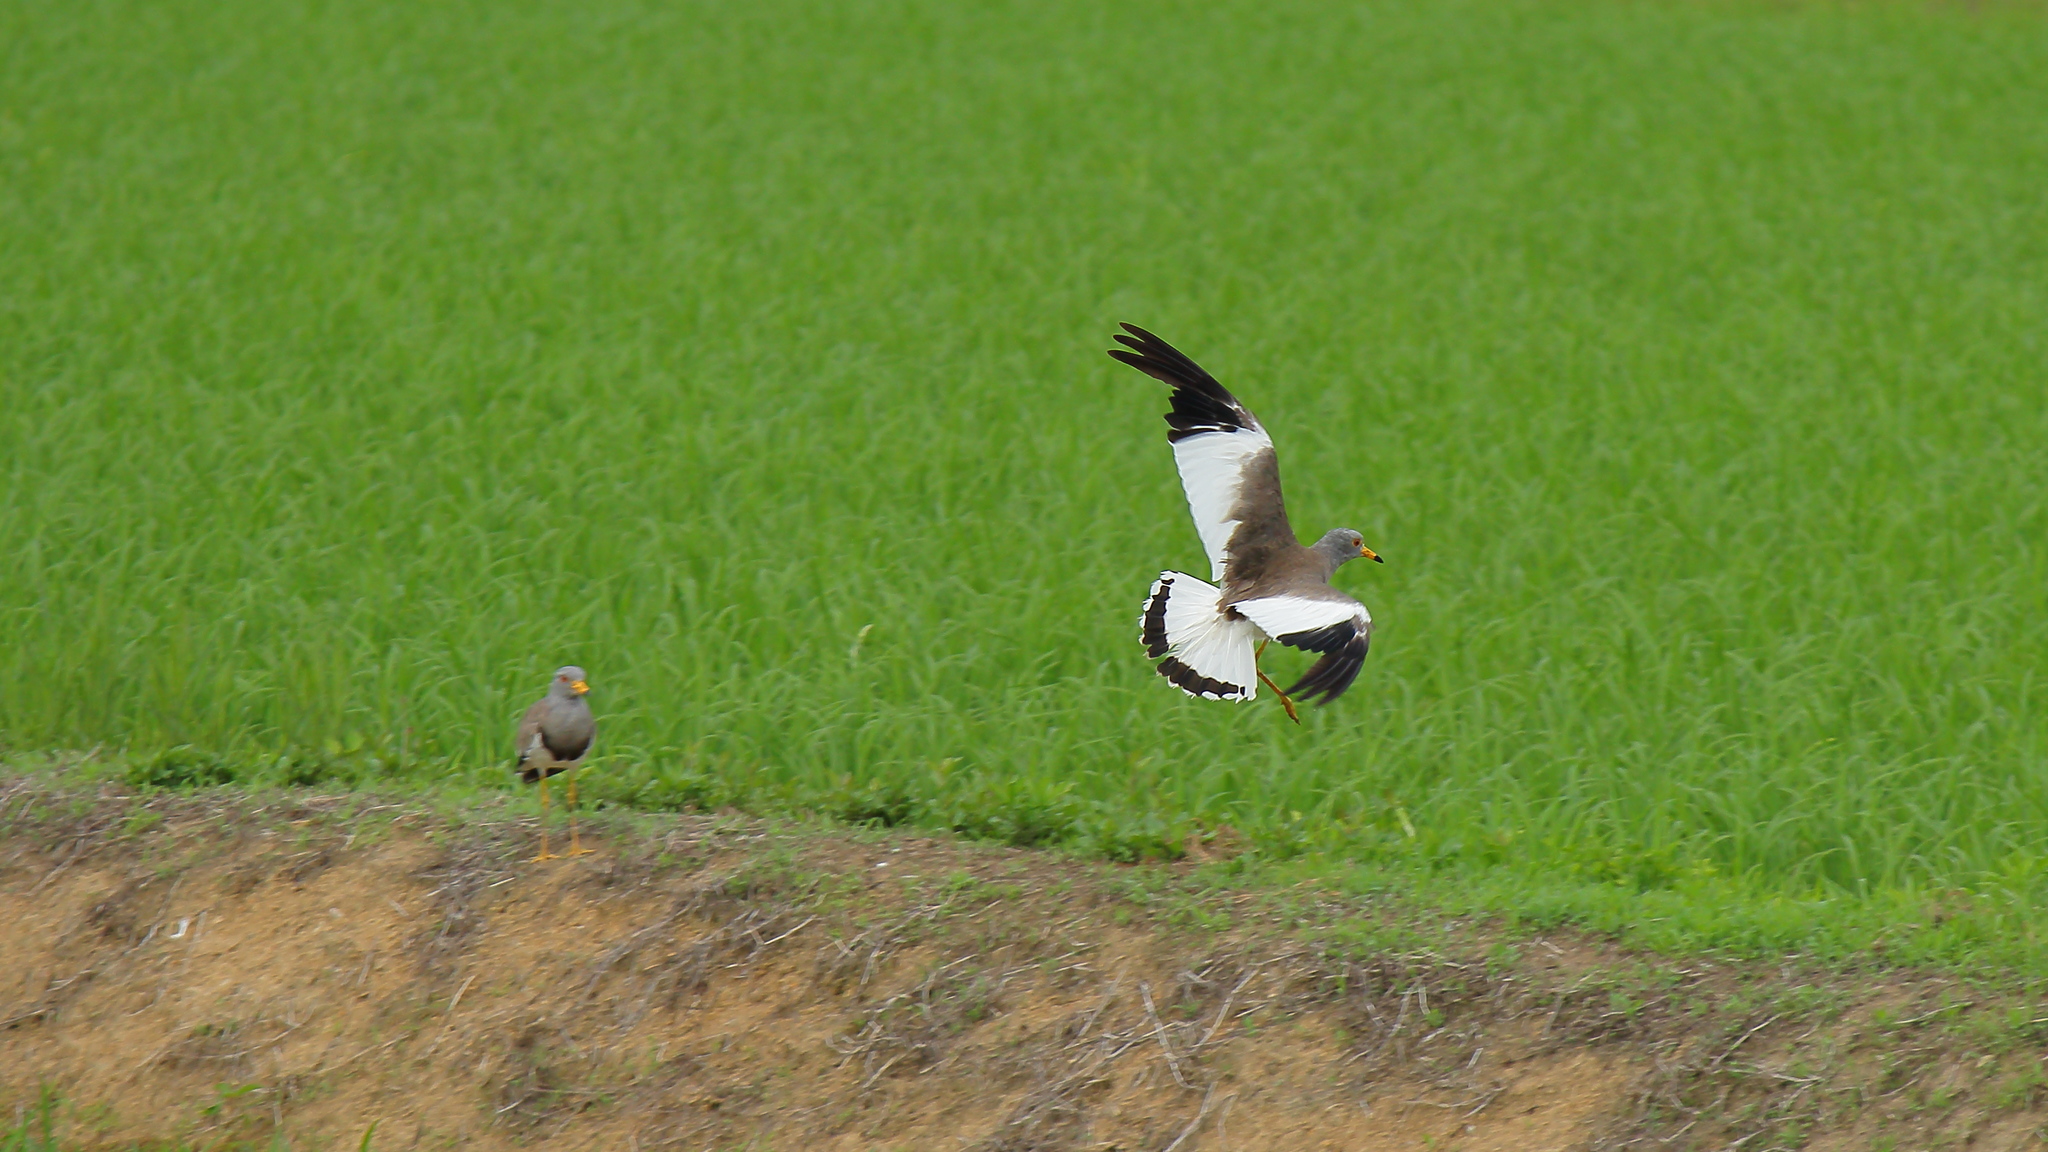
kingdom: Animalia
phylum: Chordata
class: Aves
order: Charadriiformes
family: Charadriidae
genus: Vanellus
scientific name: Vanellus cinereus
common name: Grey-headed lapwing
